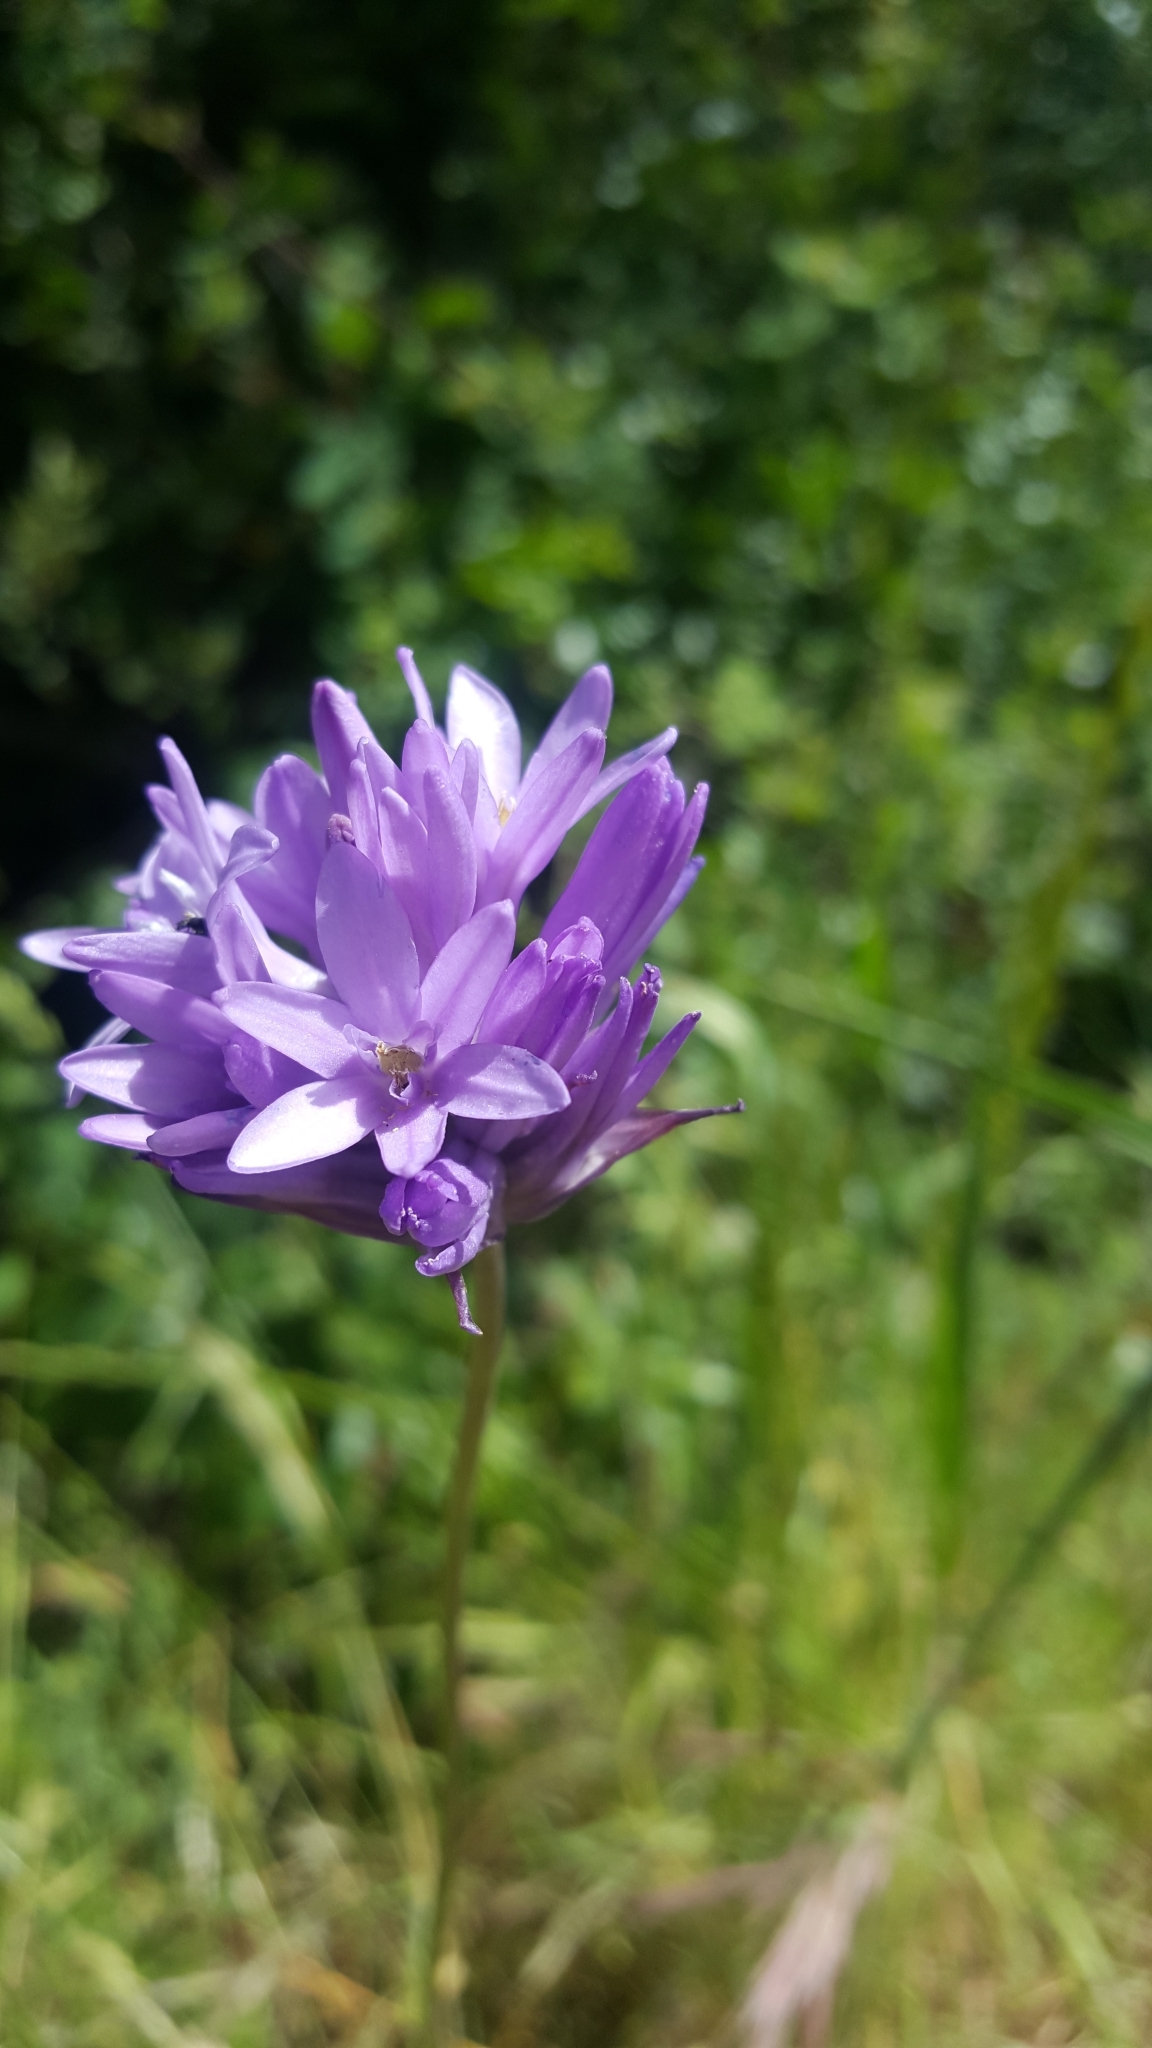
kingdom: Plantae
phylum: Tracheophyta
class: Liliopsida
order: Asparagales
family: Asparagaceae
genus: Dichelostemma
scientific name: Dichelostemma congestum
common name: Fork-tooth ookow
